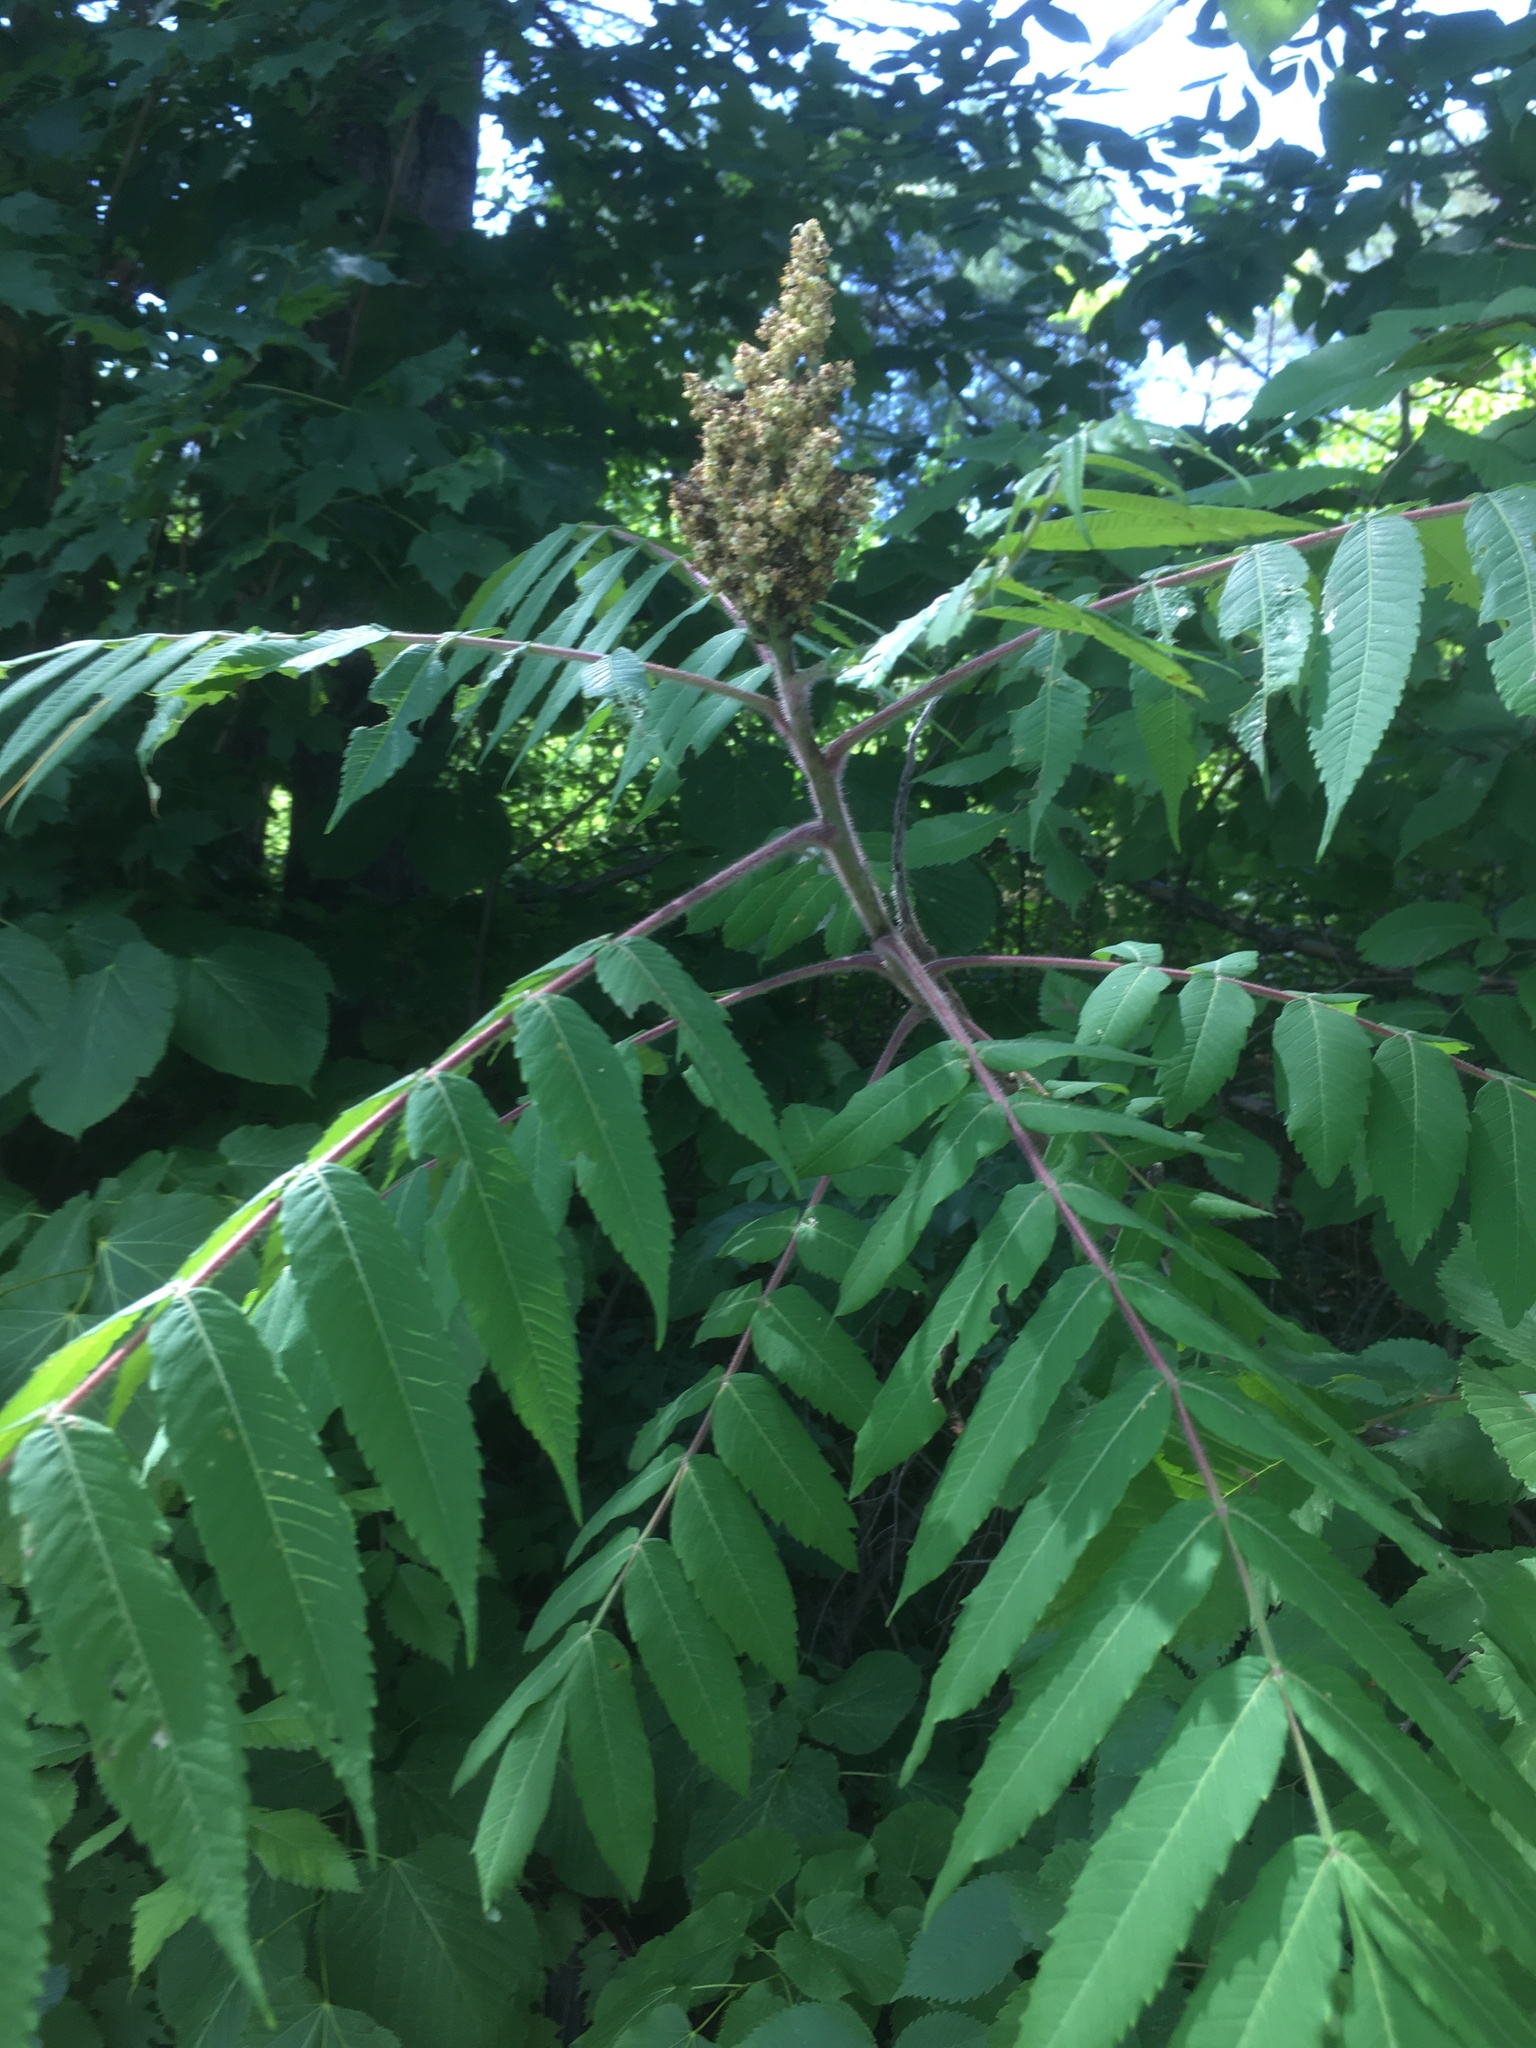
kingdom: Plantae
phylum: Tracheophyta
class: Magnoliopsida
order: Sapindales
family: Anacardiaceae
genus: Rhus
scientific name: Rhus typhina
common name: Staghorn sumac
